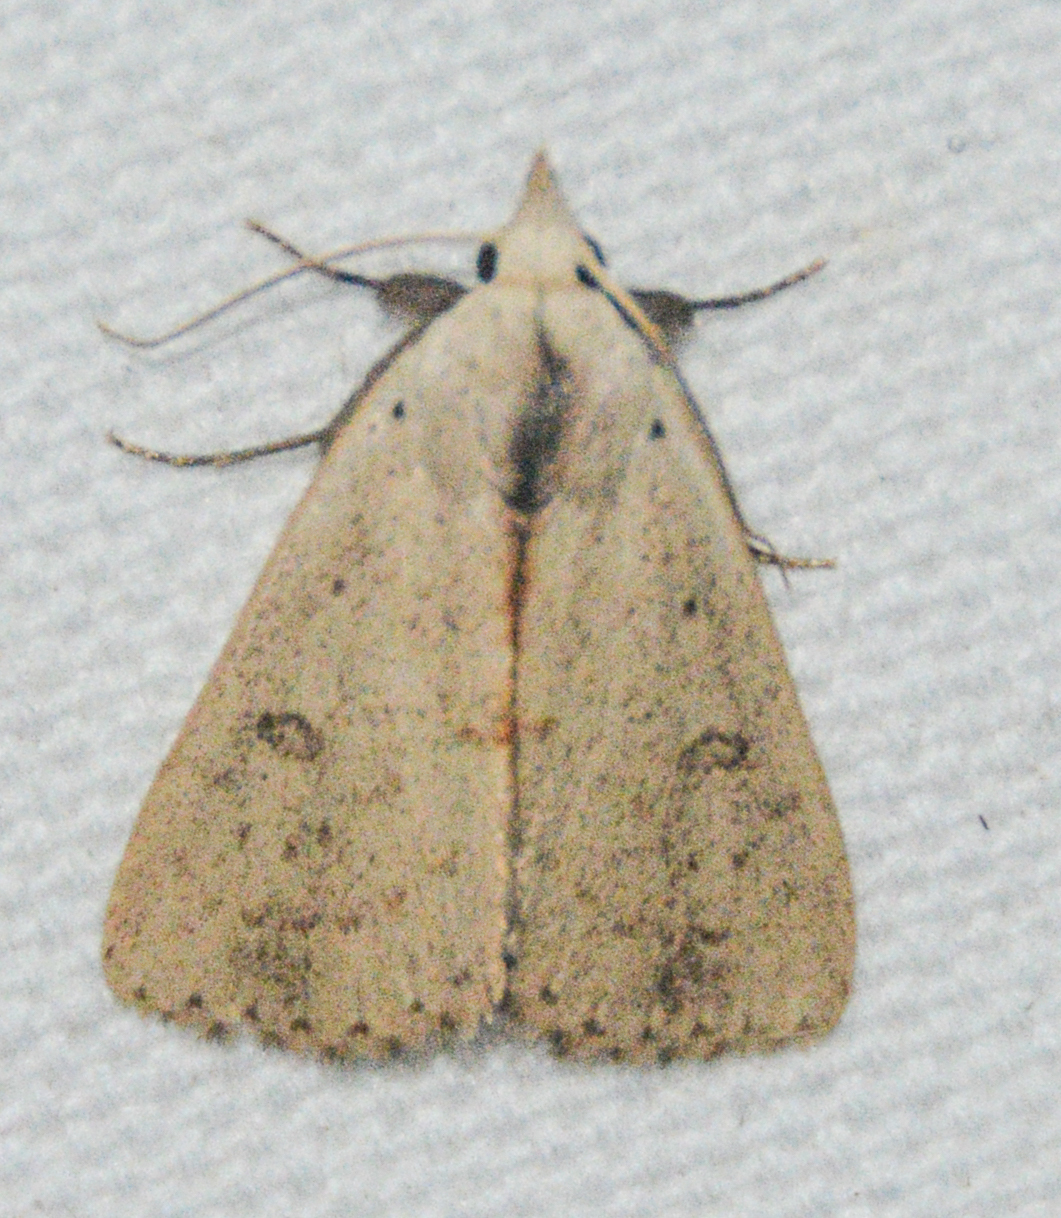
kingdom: Animalia
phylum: Arthropoda
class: Insecta
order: Lepidoptera
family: Erebidae
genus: Scolecocampa
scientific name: Scolecocampa liburna
